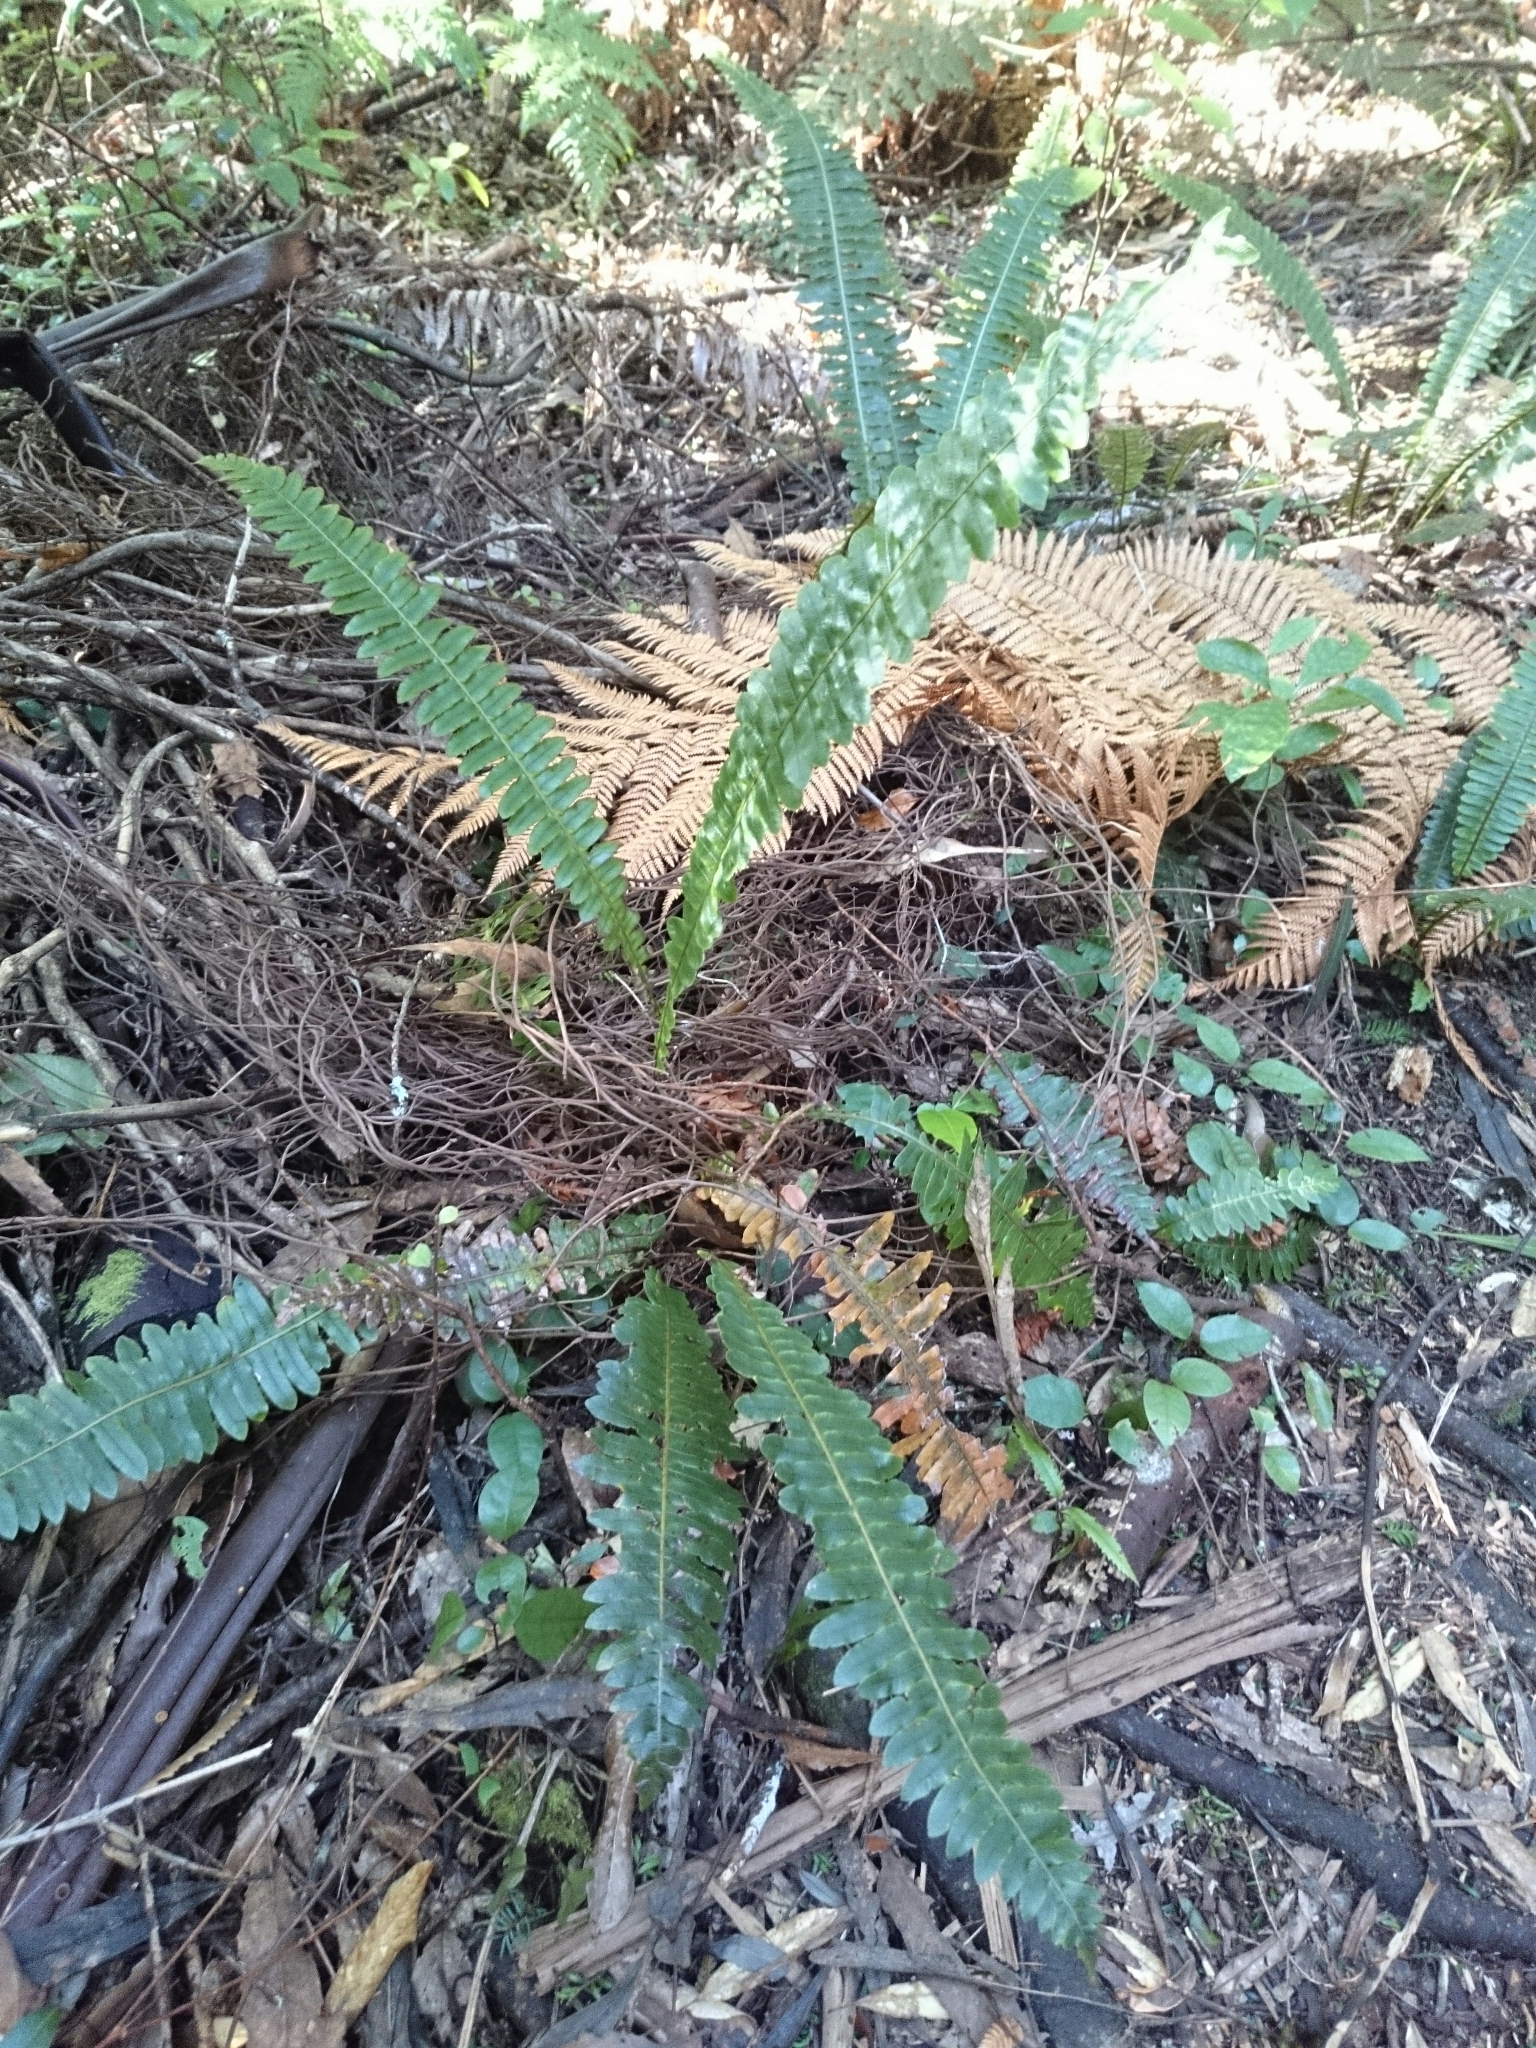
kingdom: Plantae
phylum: Tracheophyta
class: Polypodiopsida
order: Polypodiales
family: Blechnaceae
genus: Lomaria
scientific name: Lomaria discolor
